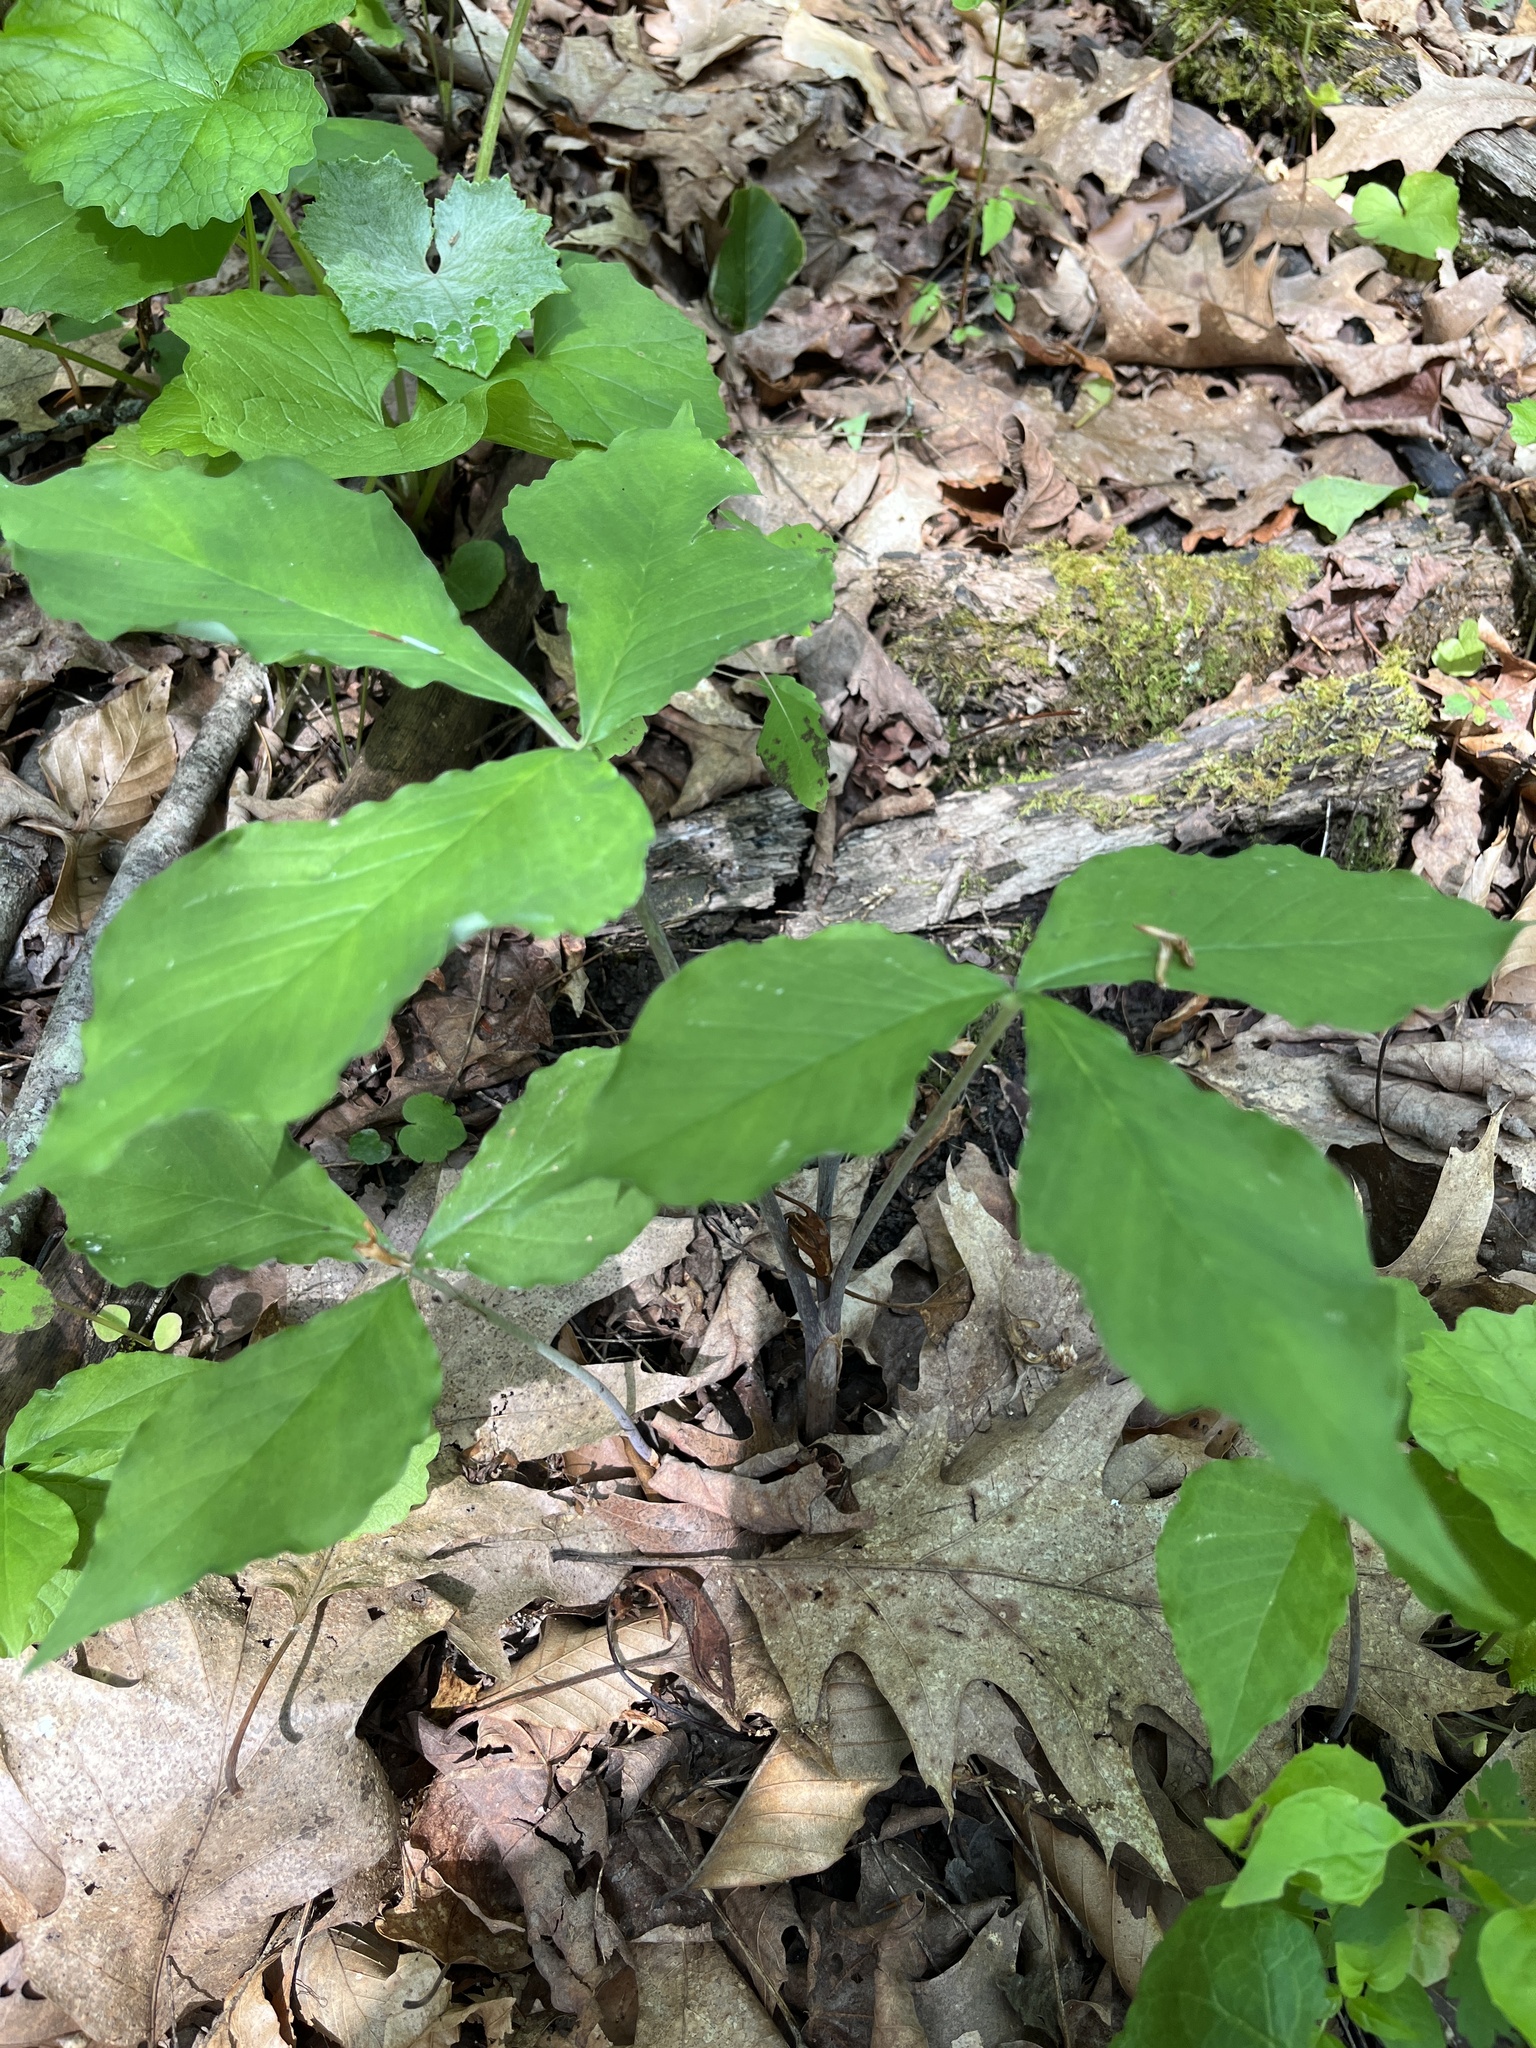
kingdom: Plantae
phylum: Tracheophyta
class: Liliopsida
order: Alismatales
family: Araceae
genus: Arisaema
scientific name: Arisaema triphyllum
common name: Jack-in-the-pulpit
